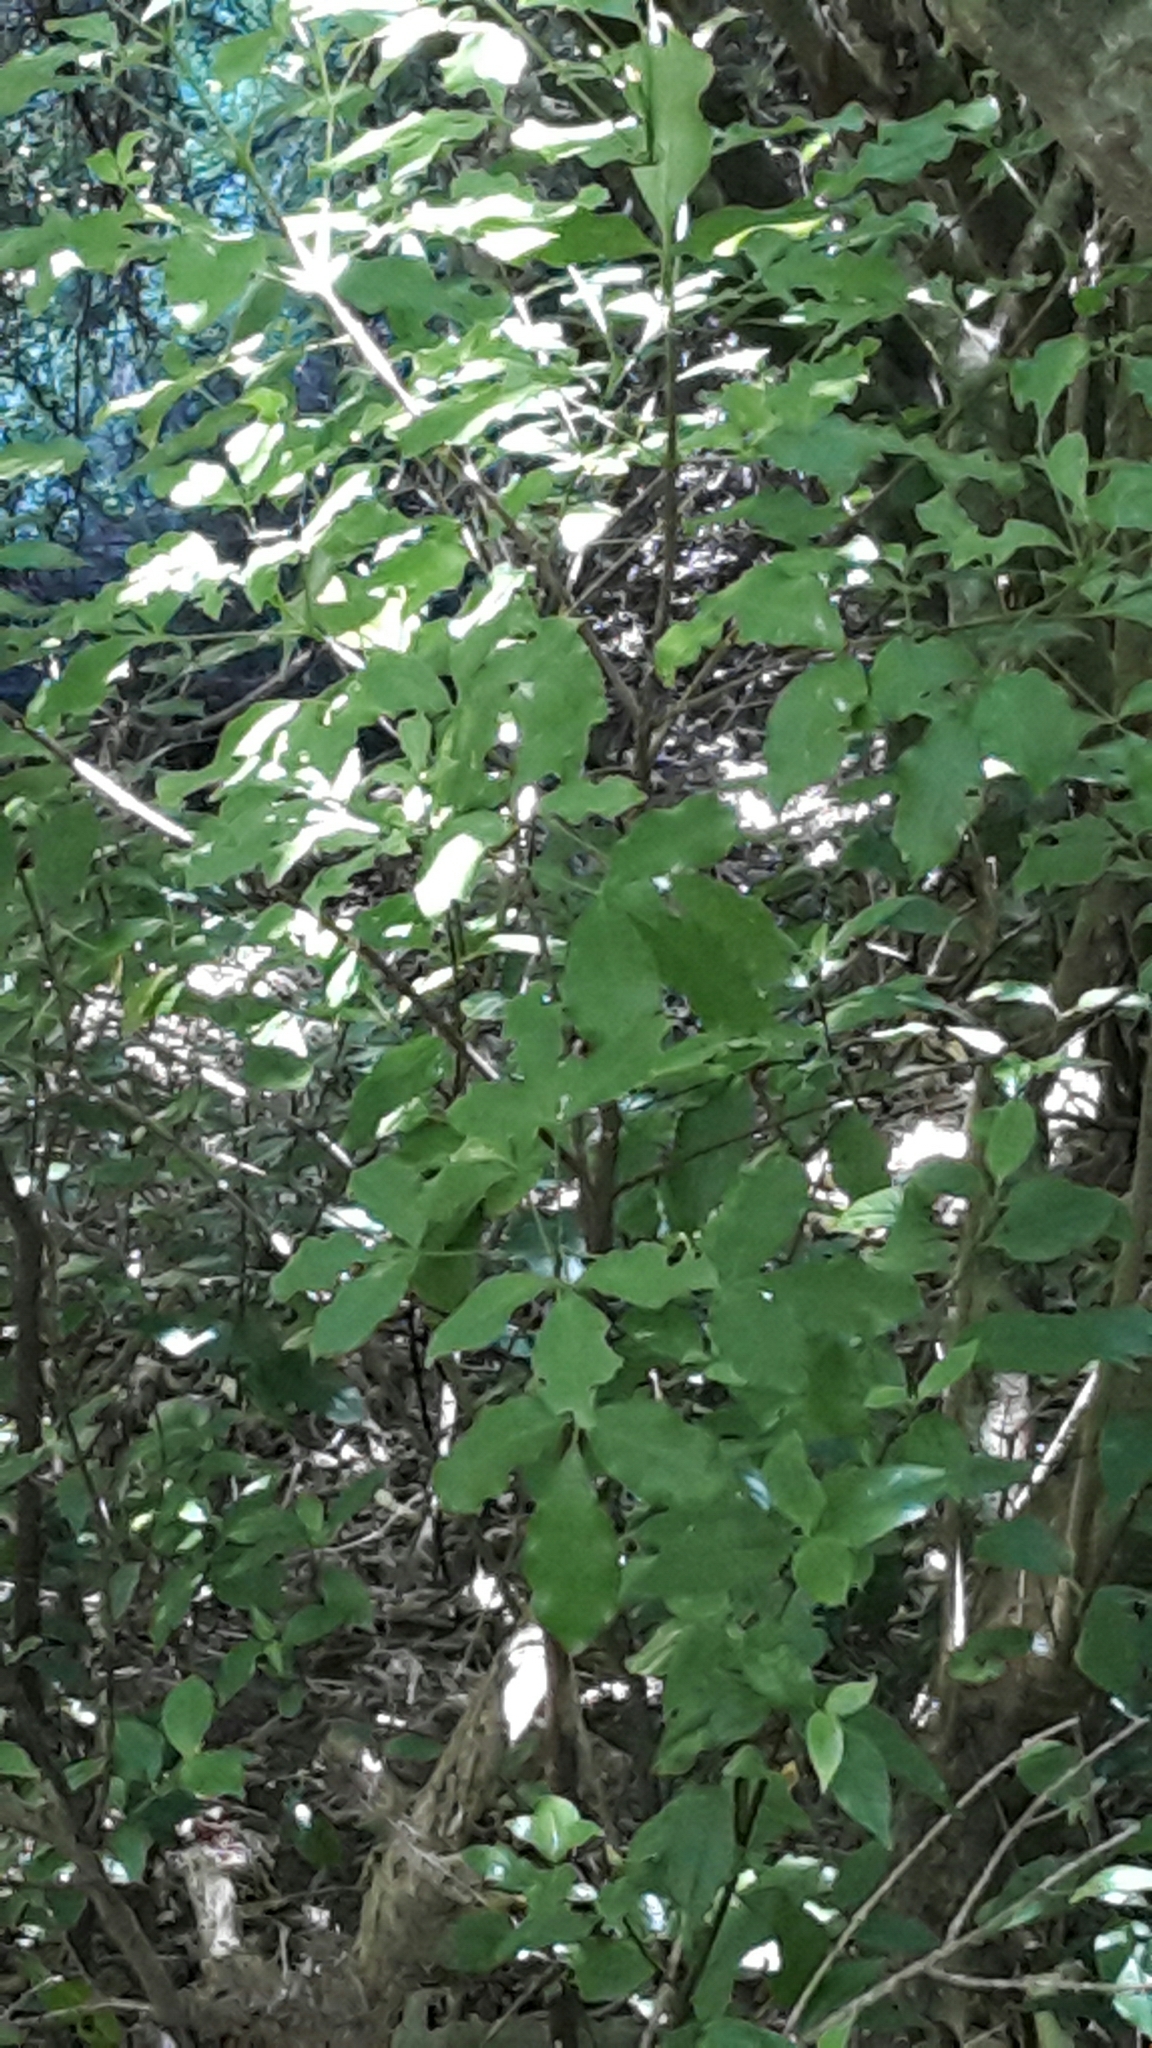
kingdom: Plantae
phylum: Tracheophyta
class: Magnoliopsida
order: Sapindales
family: Rutaceae
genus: Melicope
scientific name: Melicope ternata
